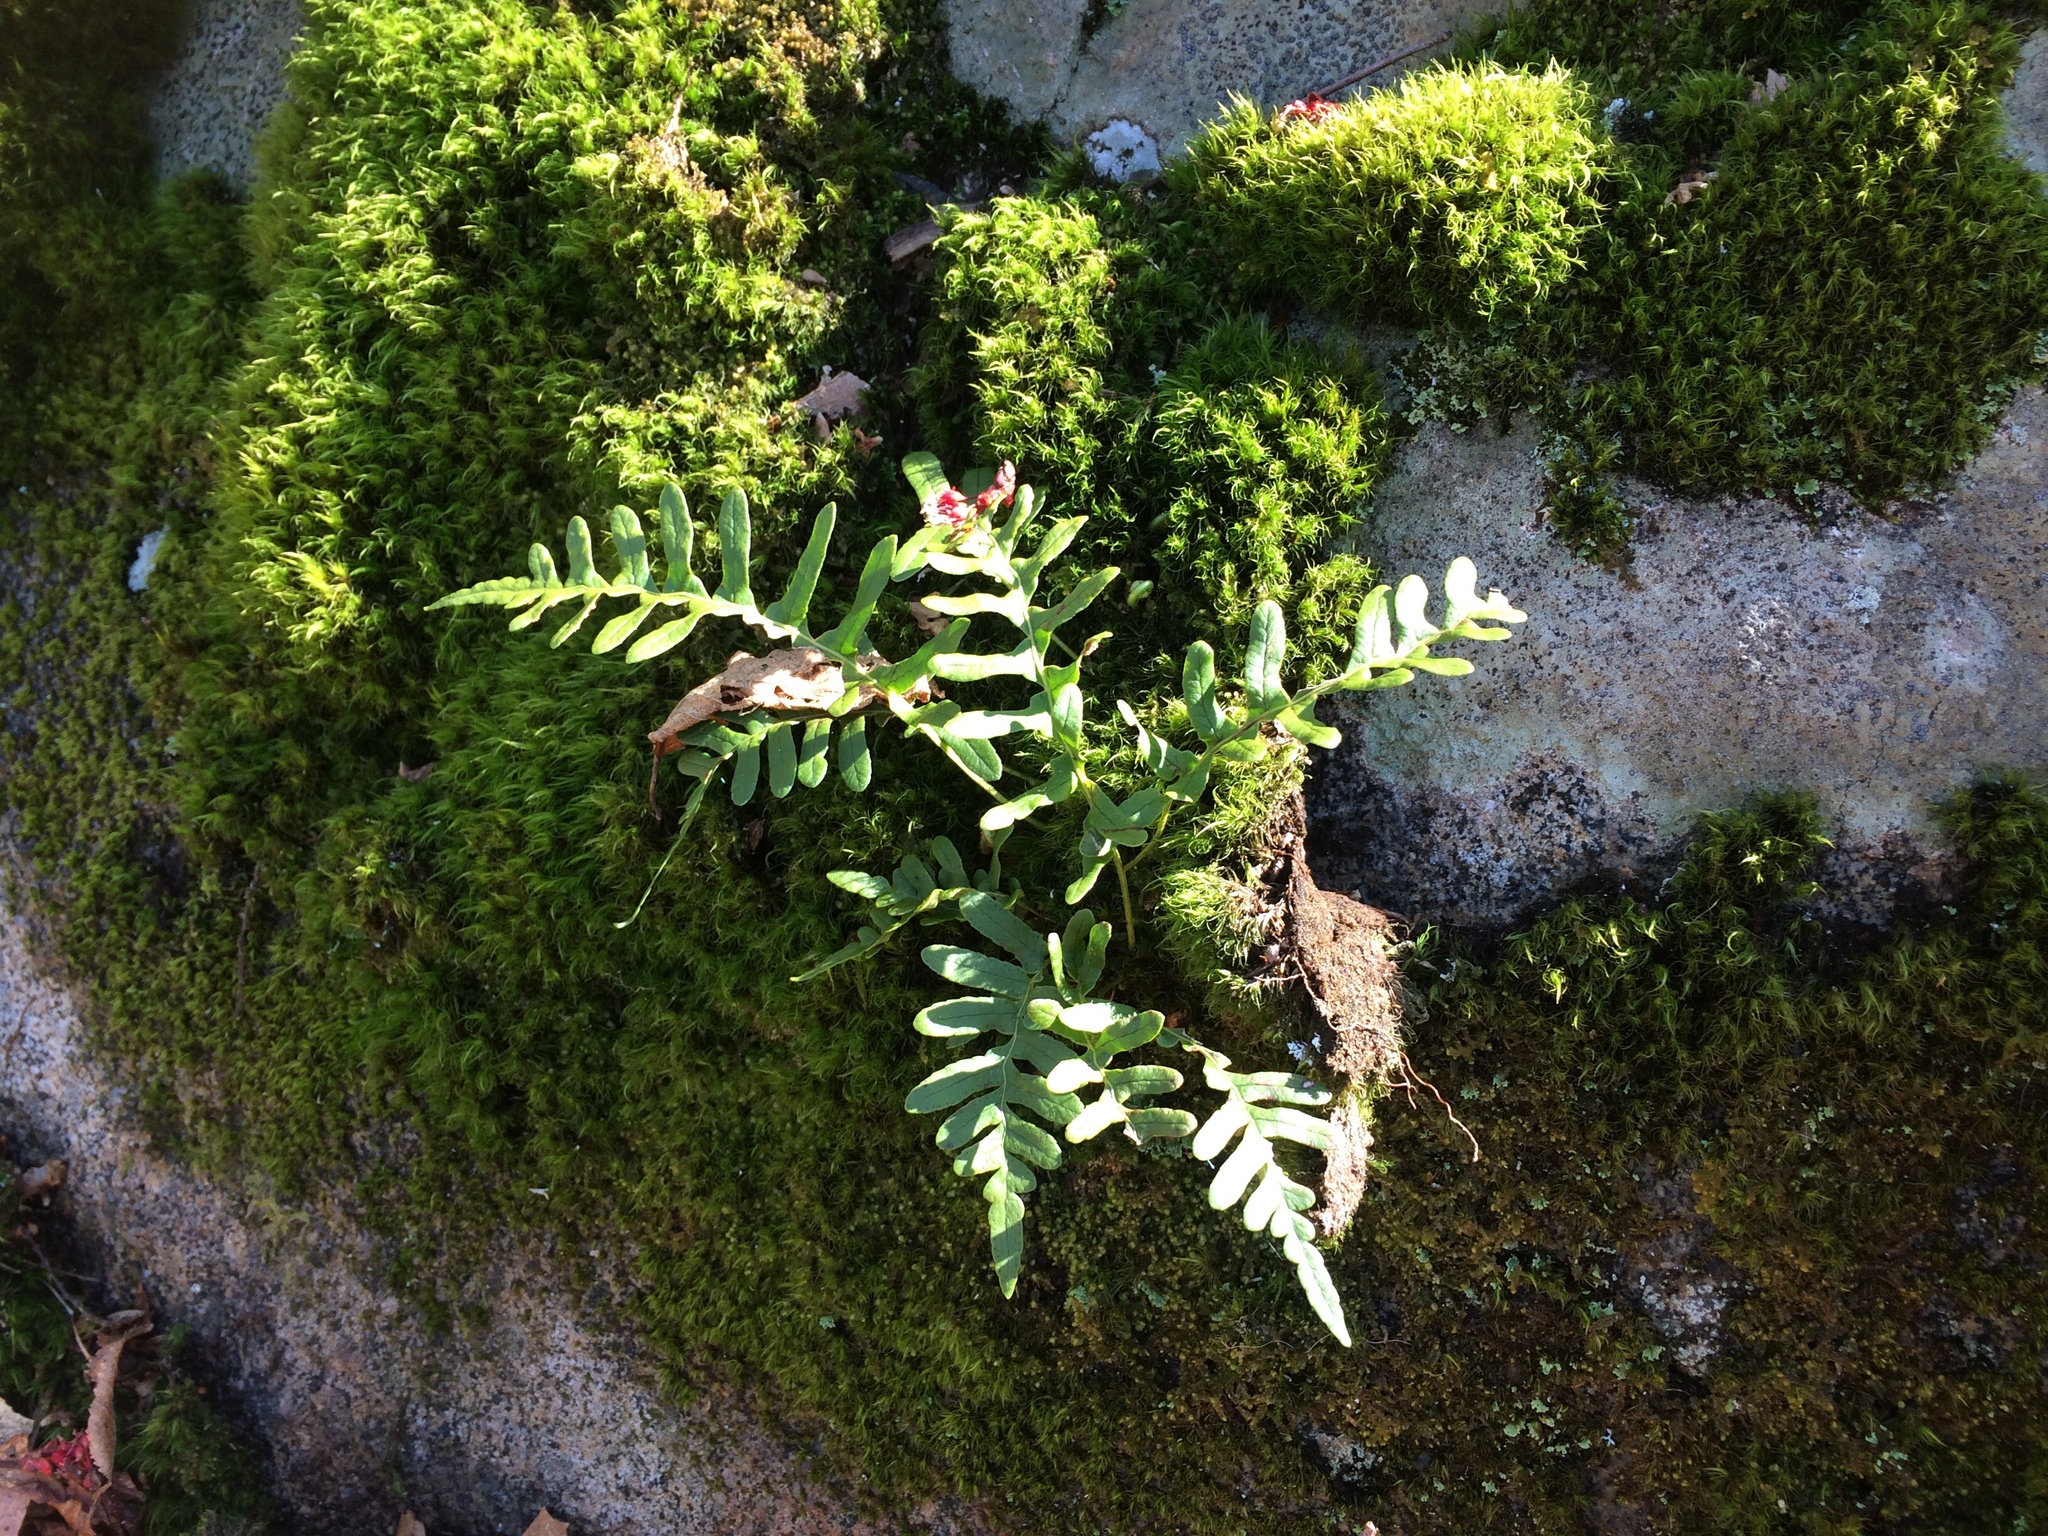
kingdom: Plantae
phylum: Tracheophyta
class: Polypodiopsida
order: Polypodiales
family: Polypodiaceae
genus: Polypodium
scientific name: Polypodium virginianum
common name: American wall fern
